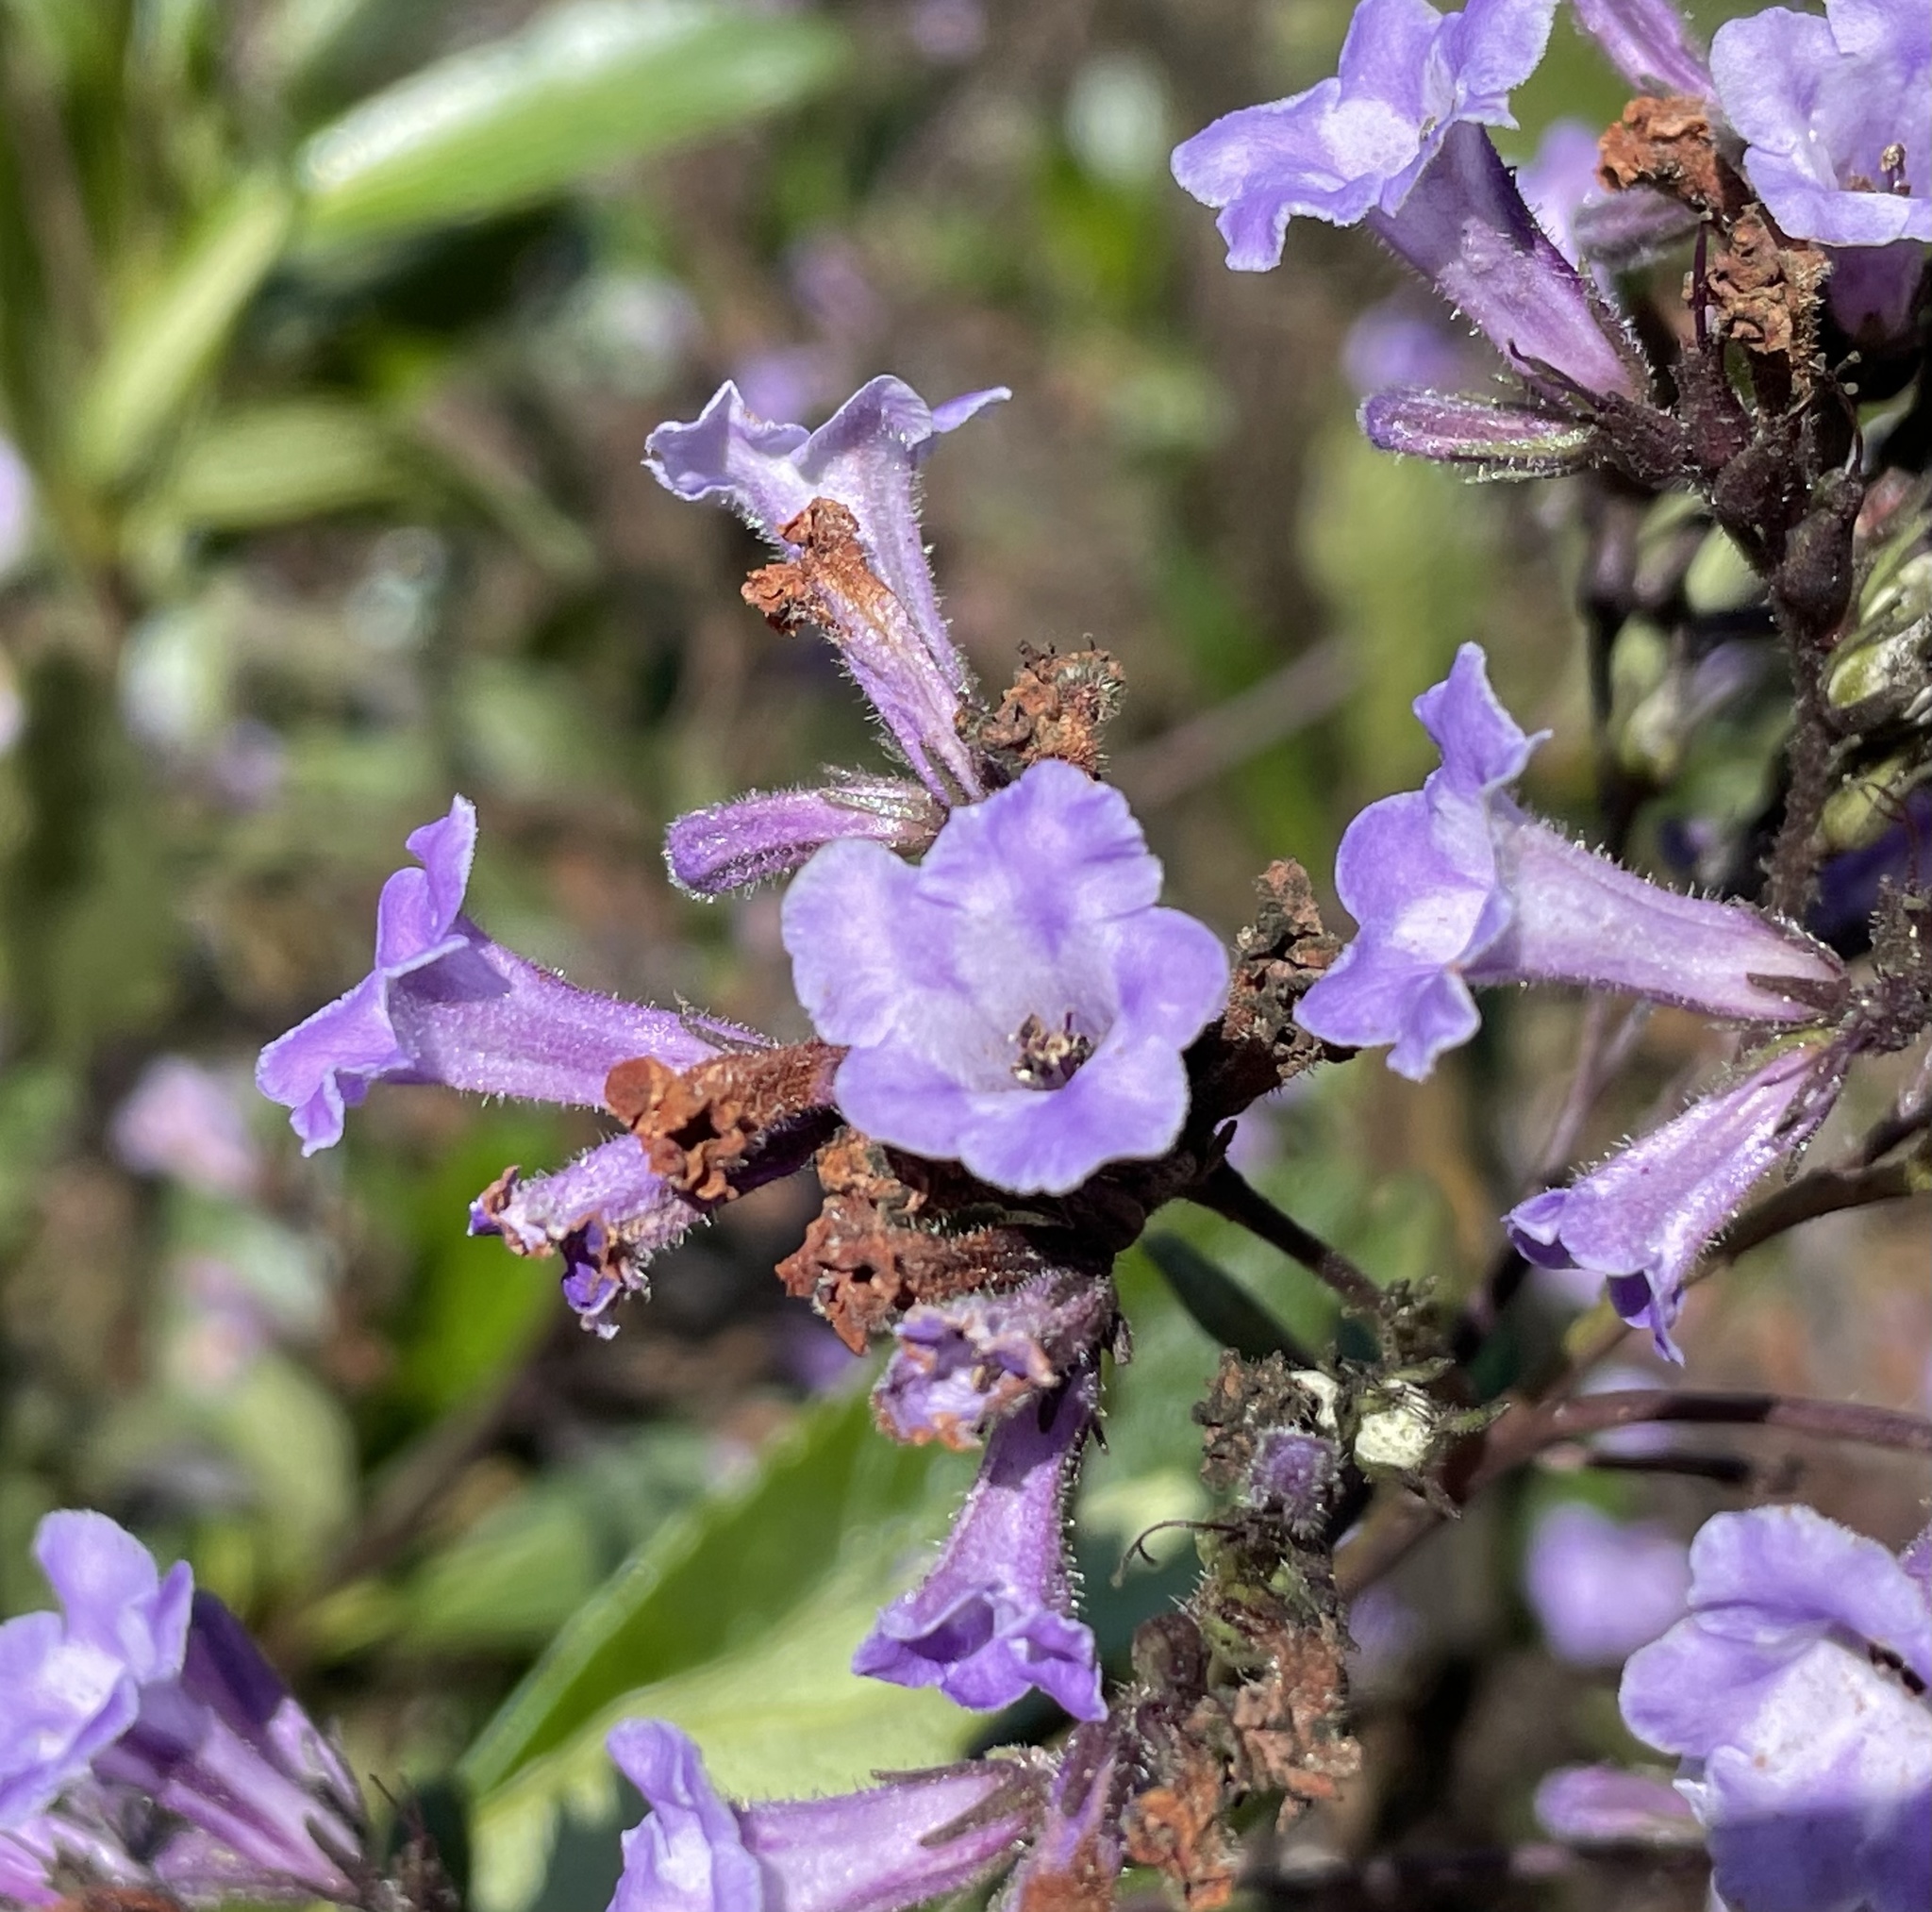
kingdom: Plantae
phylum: Tracheophyta
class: Magnoliopsida
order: Boraginales
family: Namaceae
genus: Eriodictyon
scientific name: Eriodictyon californicum
